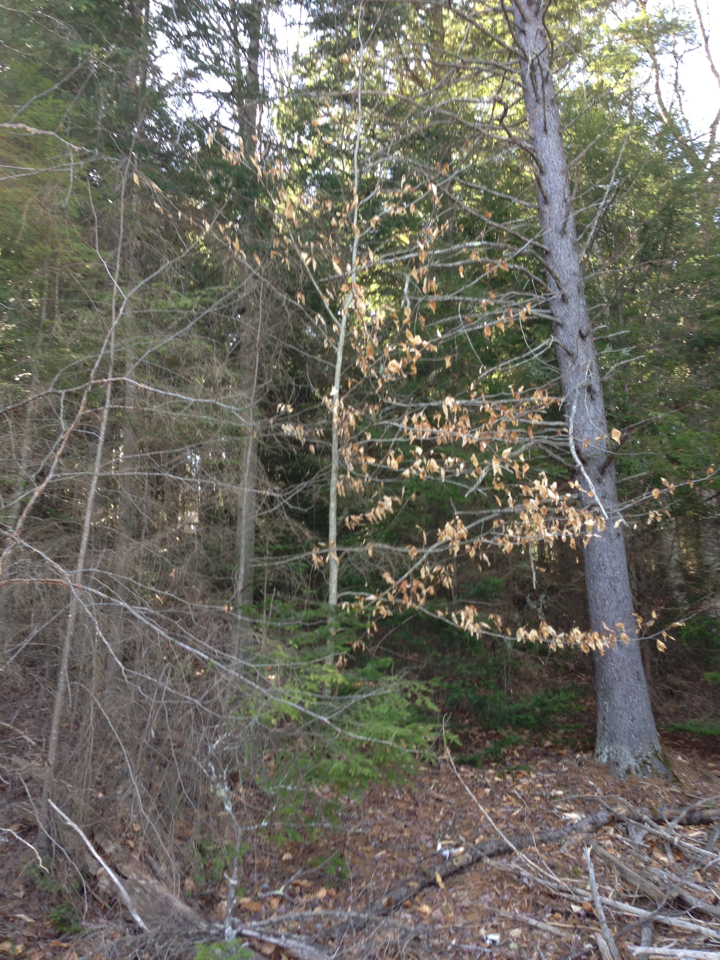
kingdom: Plantae
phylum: Tracheophyta
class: Magnoliopsida
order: Fagales
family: Fagaceae
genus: Fagus
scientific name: Fagus grandifolia
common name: American beech
